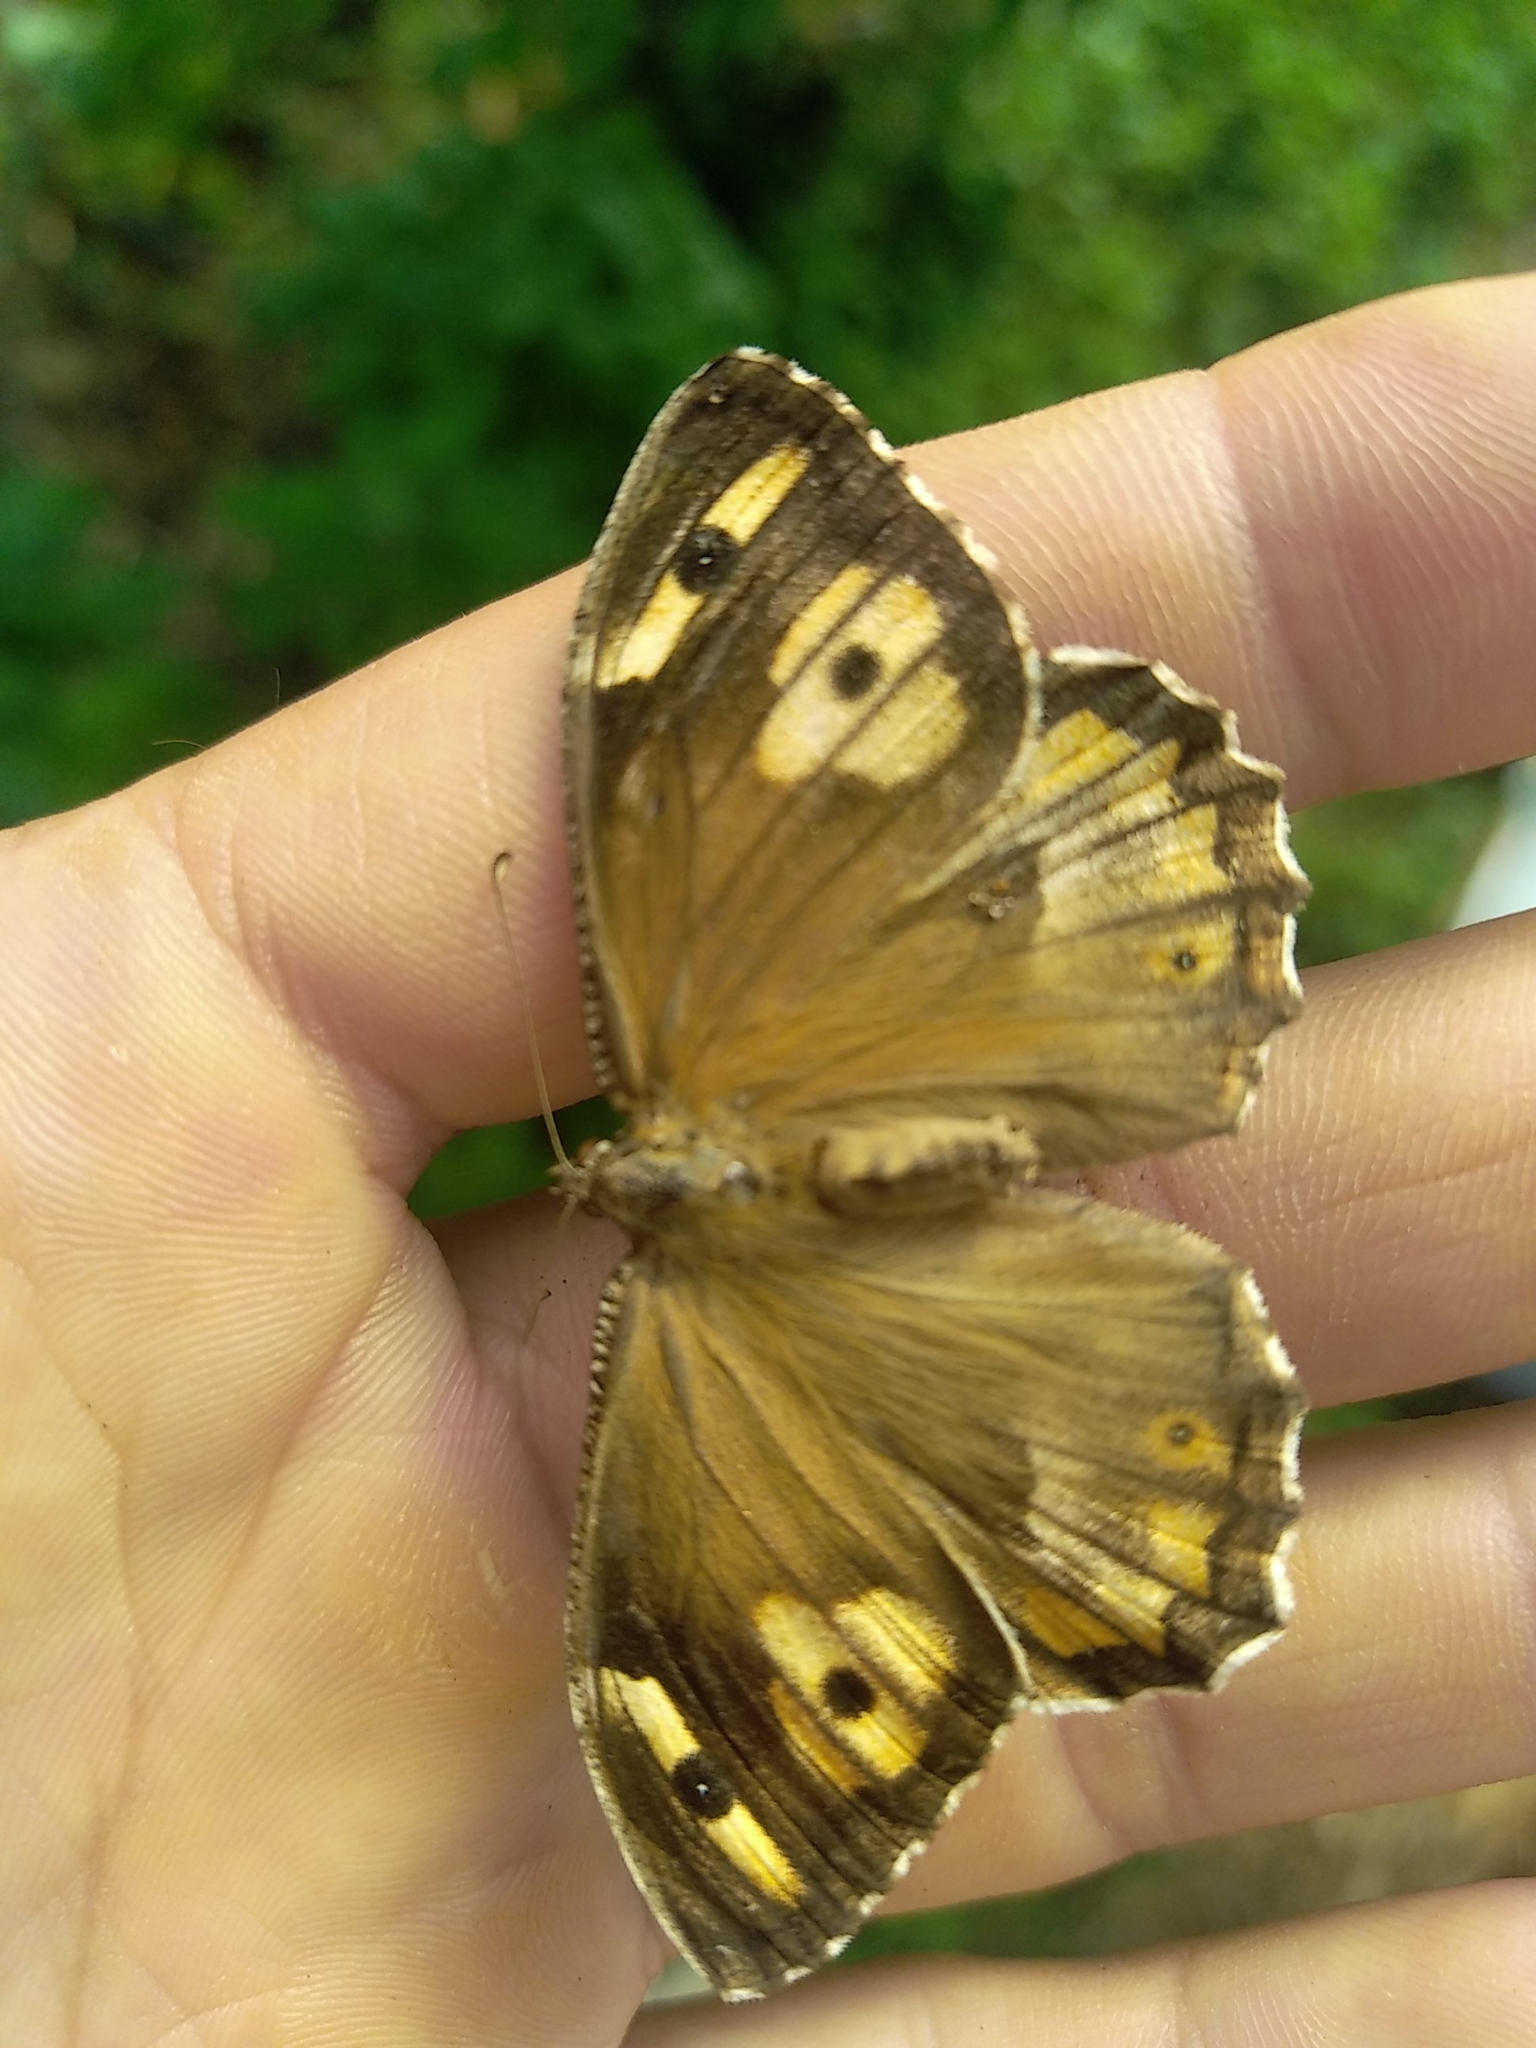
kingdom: Animalia
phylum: Arthropoda
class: Insecta
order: Lepidoptera
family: Nymphalidae
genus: Hipparchia
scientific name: Hipparchia semele
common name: Grayling
